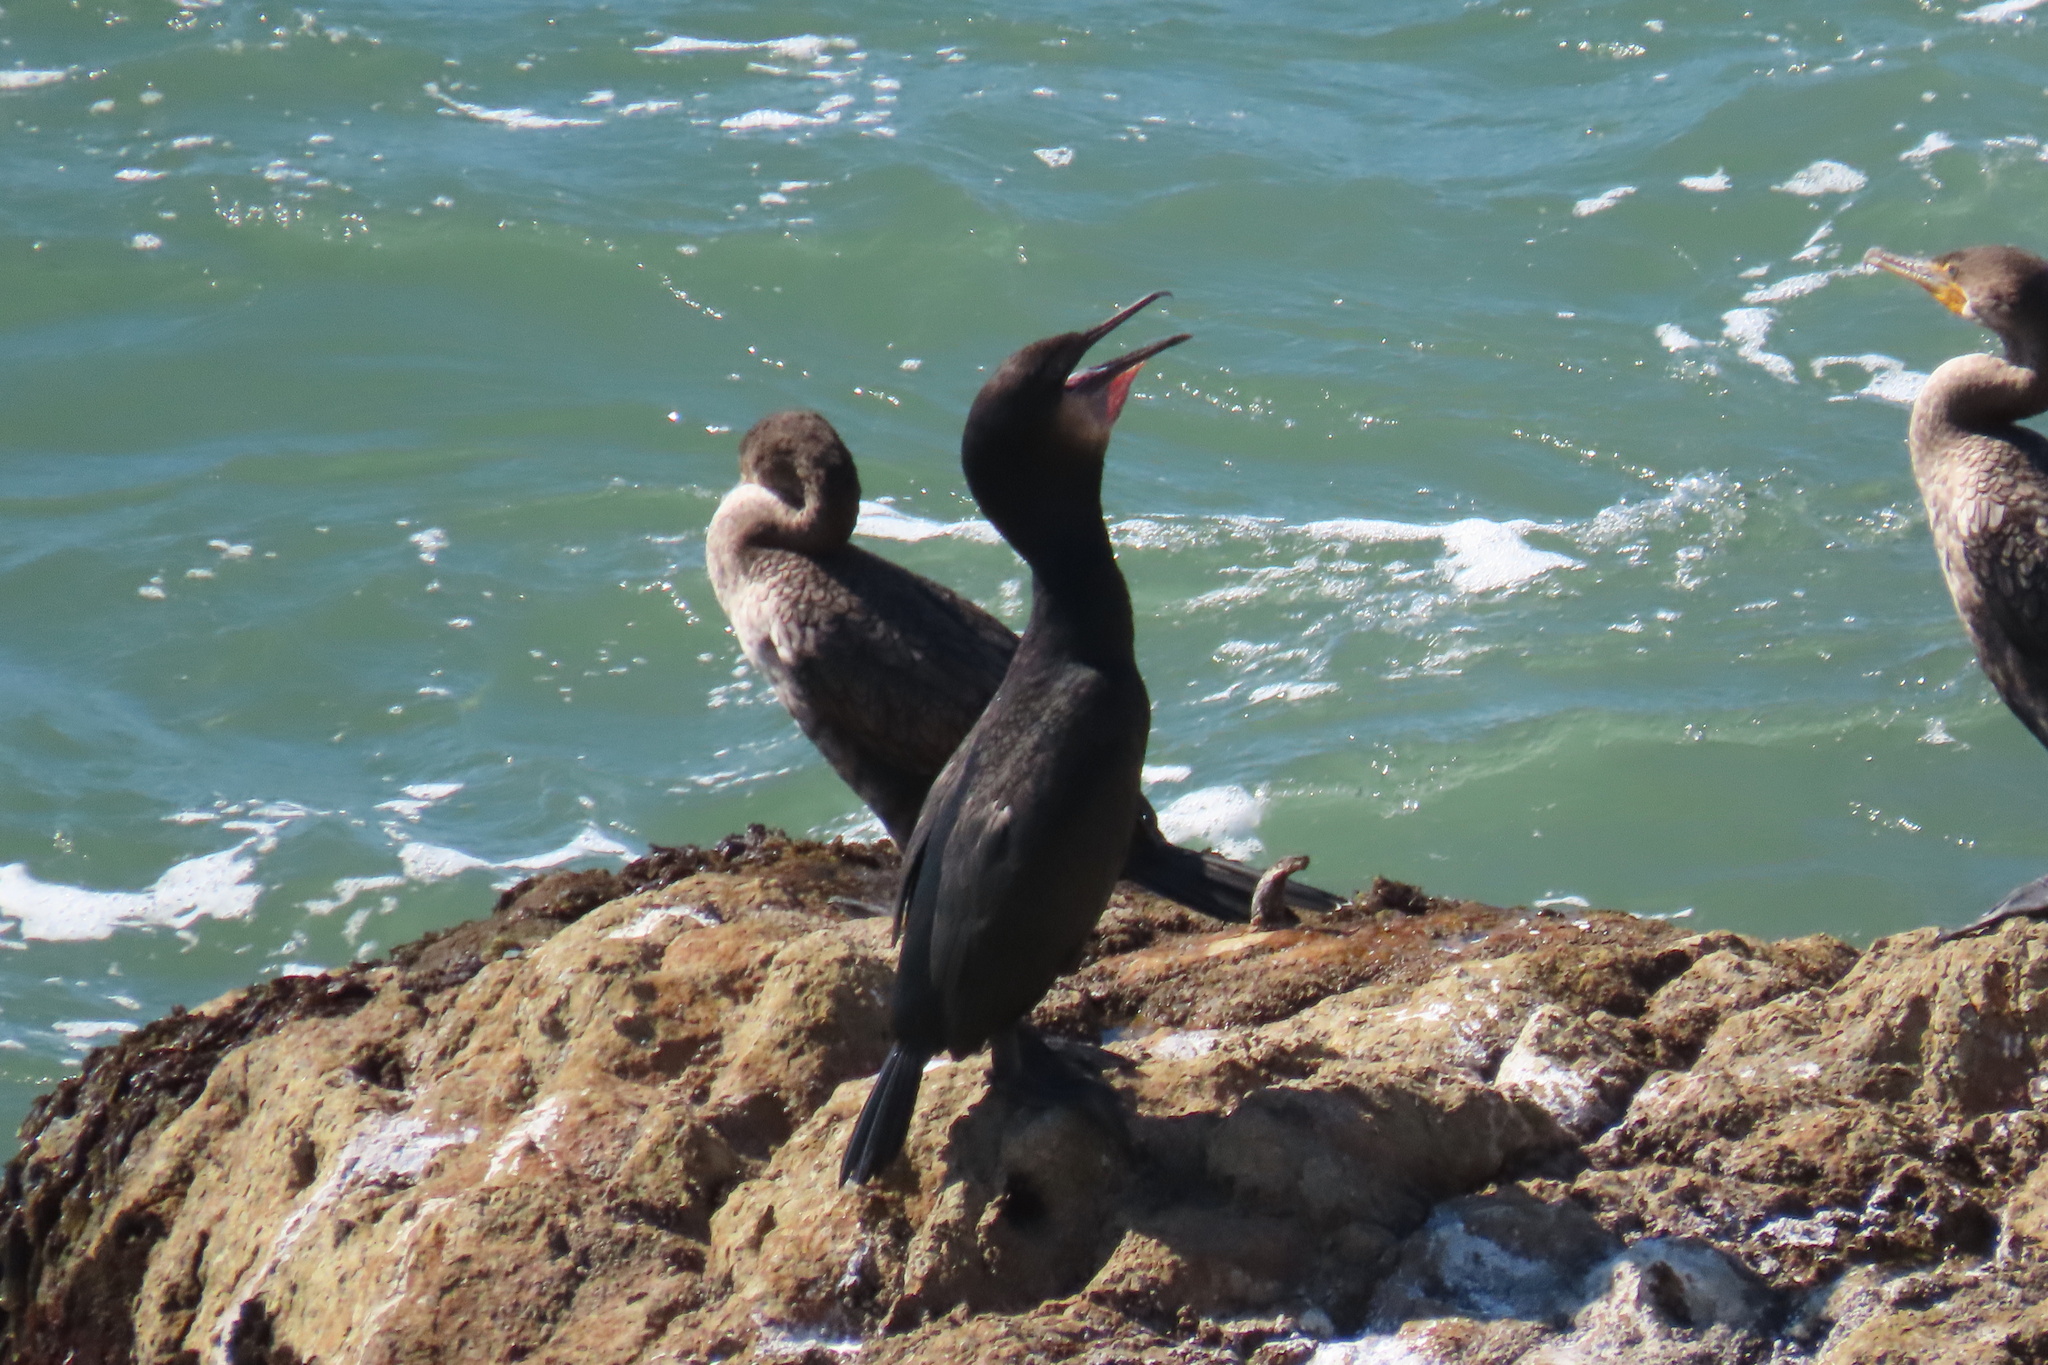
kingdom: Animalia
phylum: Chordata
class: Aves
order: Suliformes
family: Phalacrocoracidae
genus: Urile
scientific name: Urile penicillatus
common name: Brandt's cormorant
